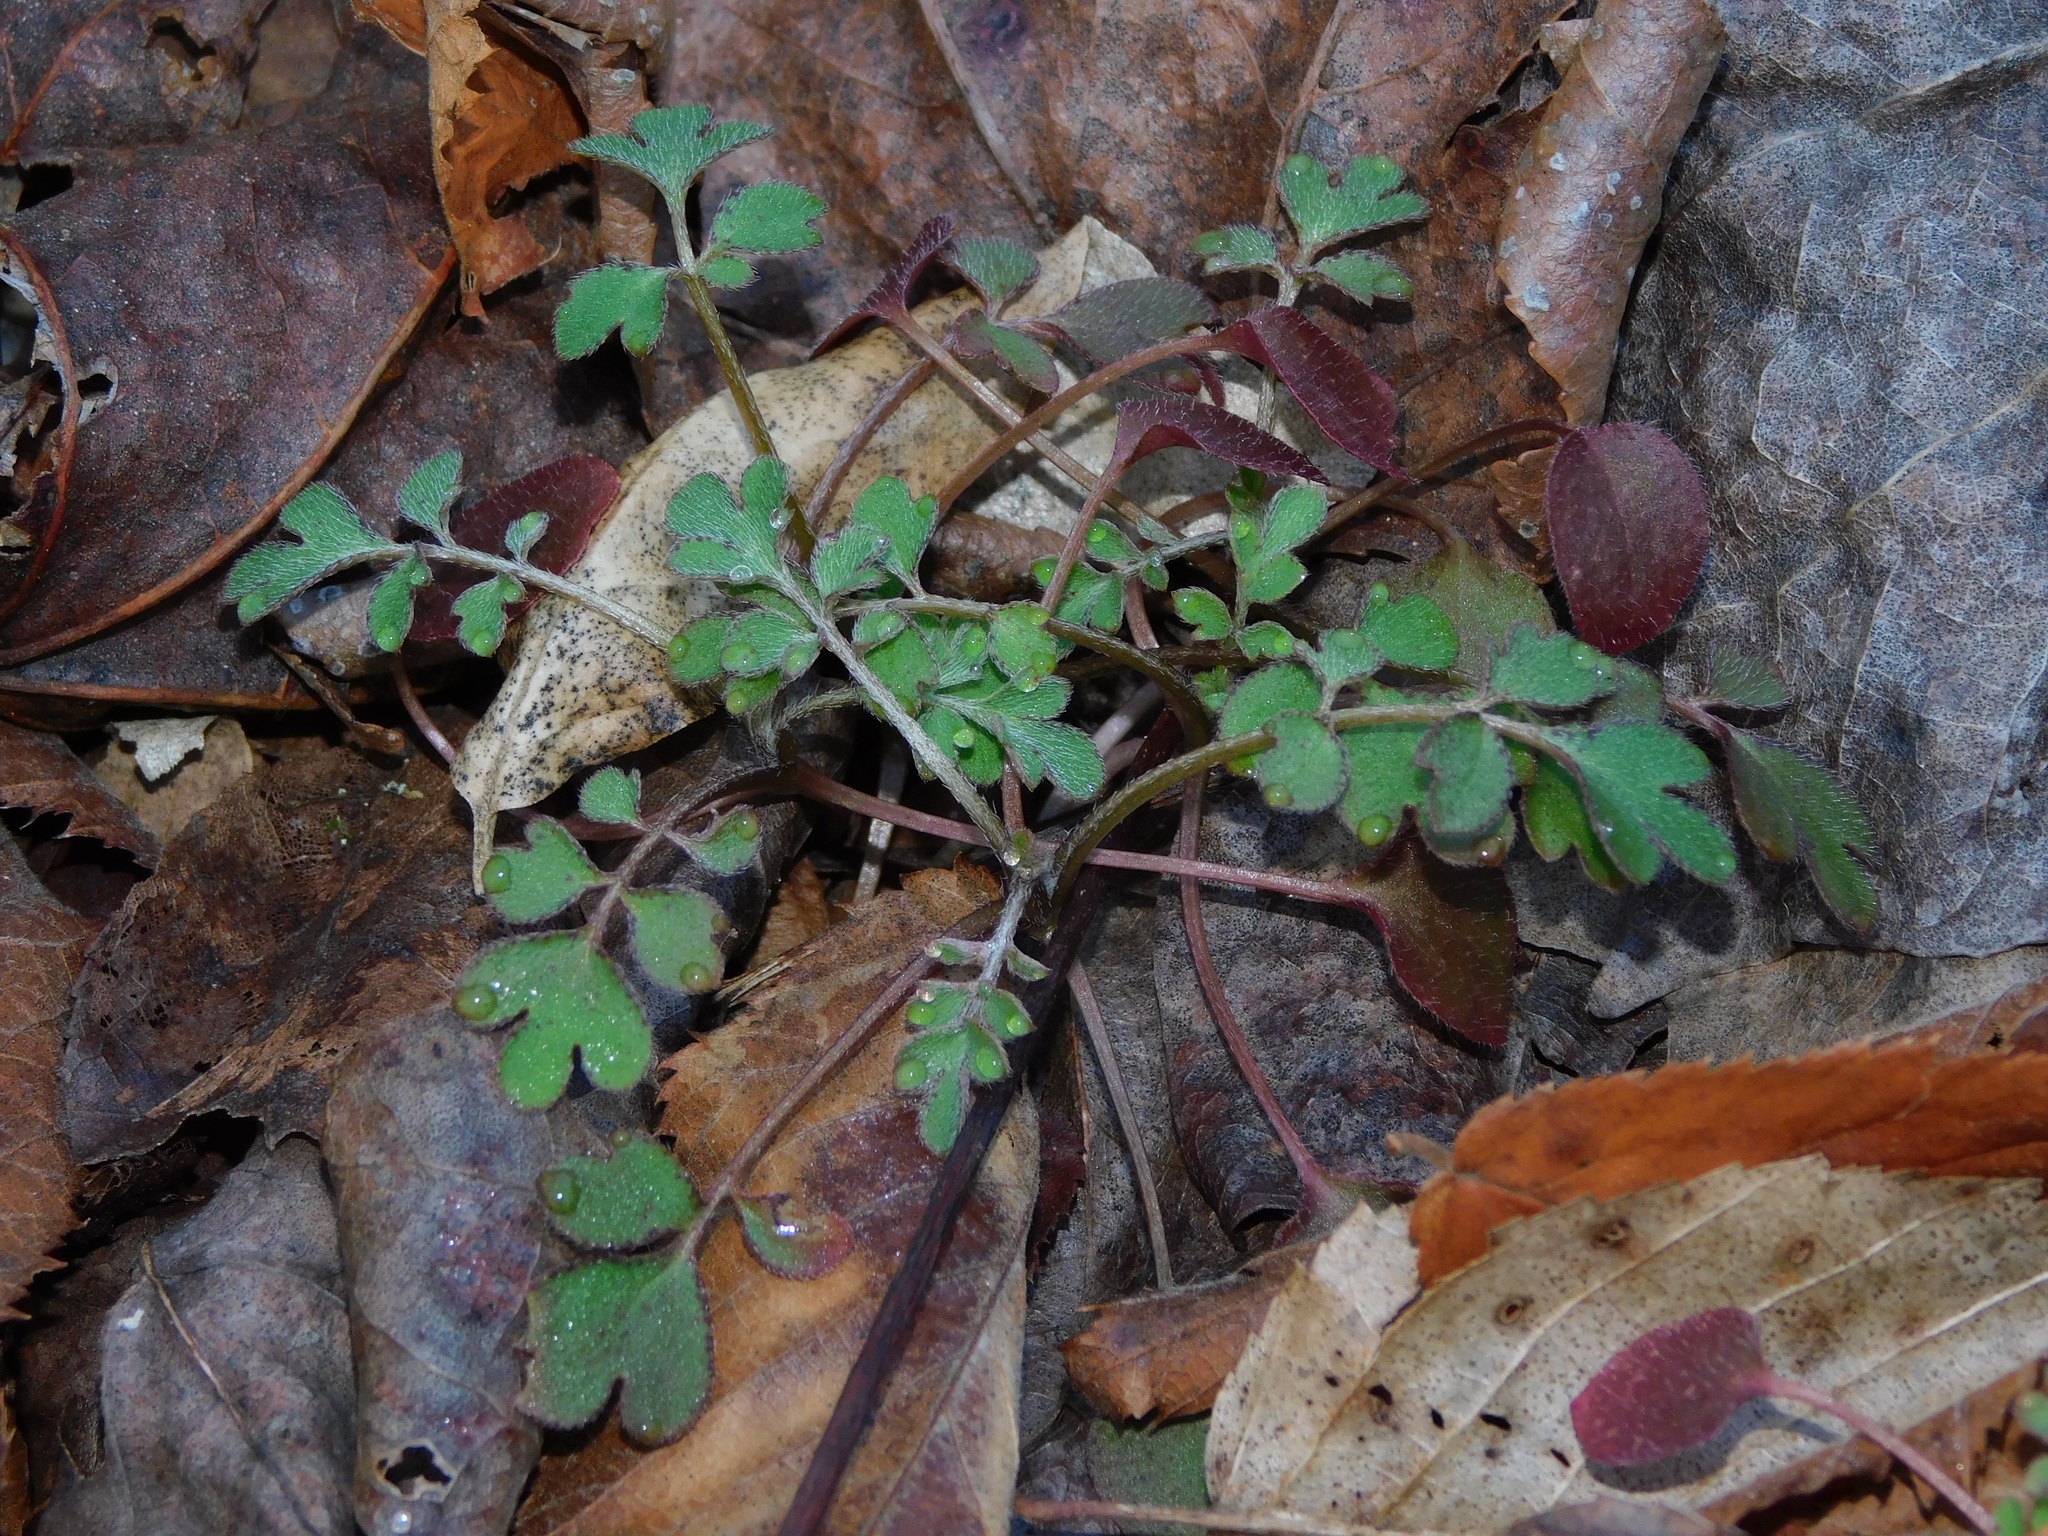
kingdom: Plantae
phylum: Tracheophyta
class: Magnoliopsida
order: Boraginales
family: Hydrophyllaceae
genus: Phacelia
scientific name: Phacelia dubia
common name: Appalachian phacelia
